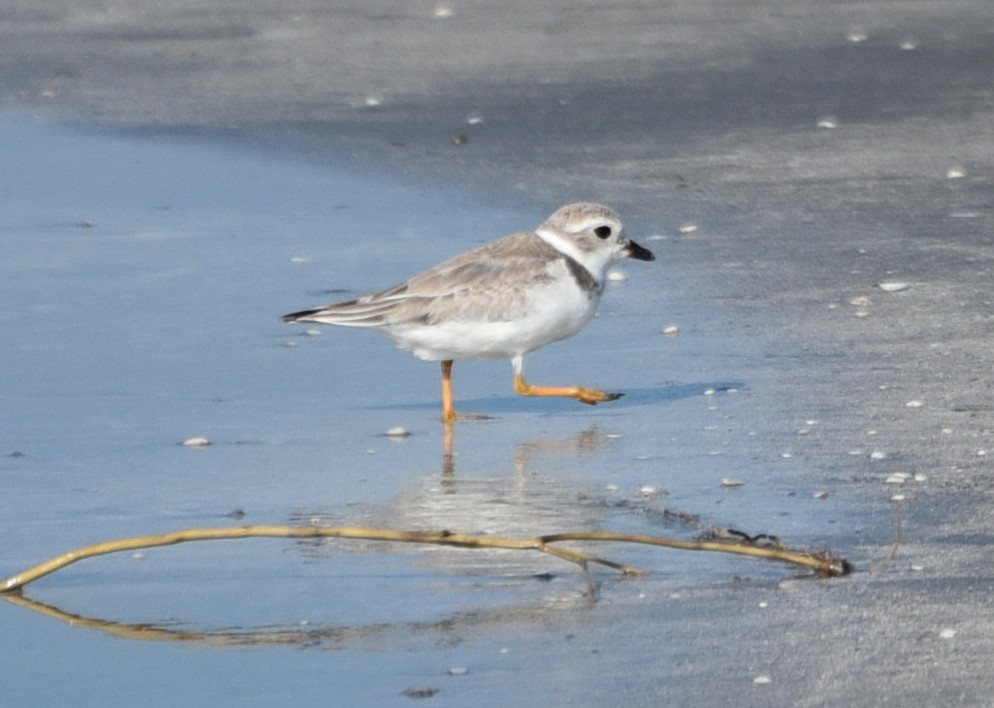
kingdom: Animalia
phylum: Chordata
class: Aves
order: Charadriiformes
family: Charadriidae
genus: Charadrius
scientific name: Charadrius melodus
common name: Piping plover
